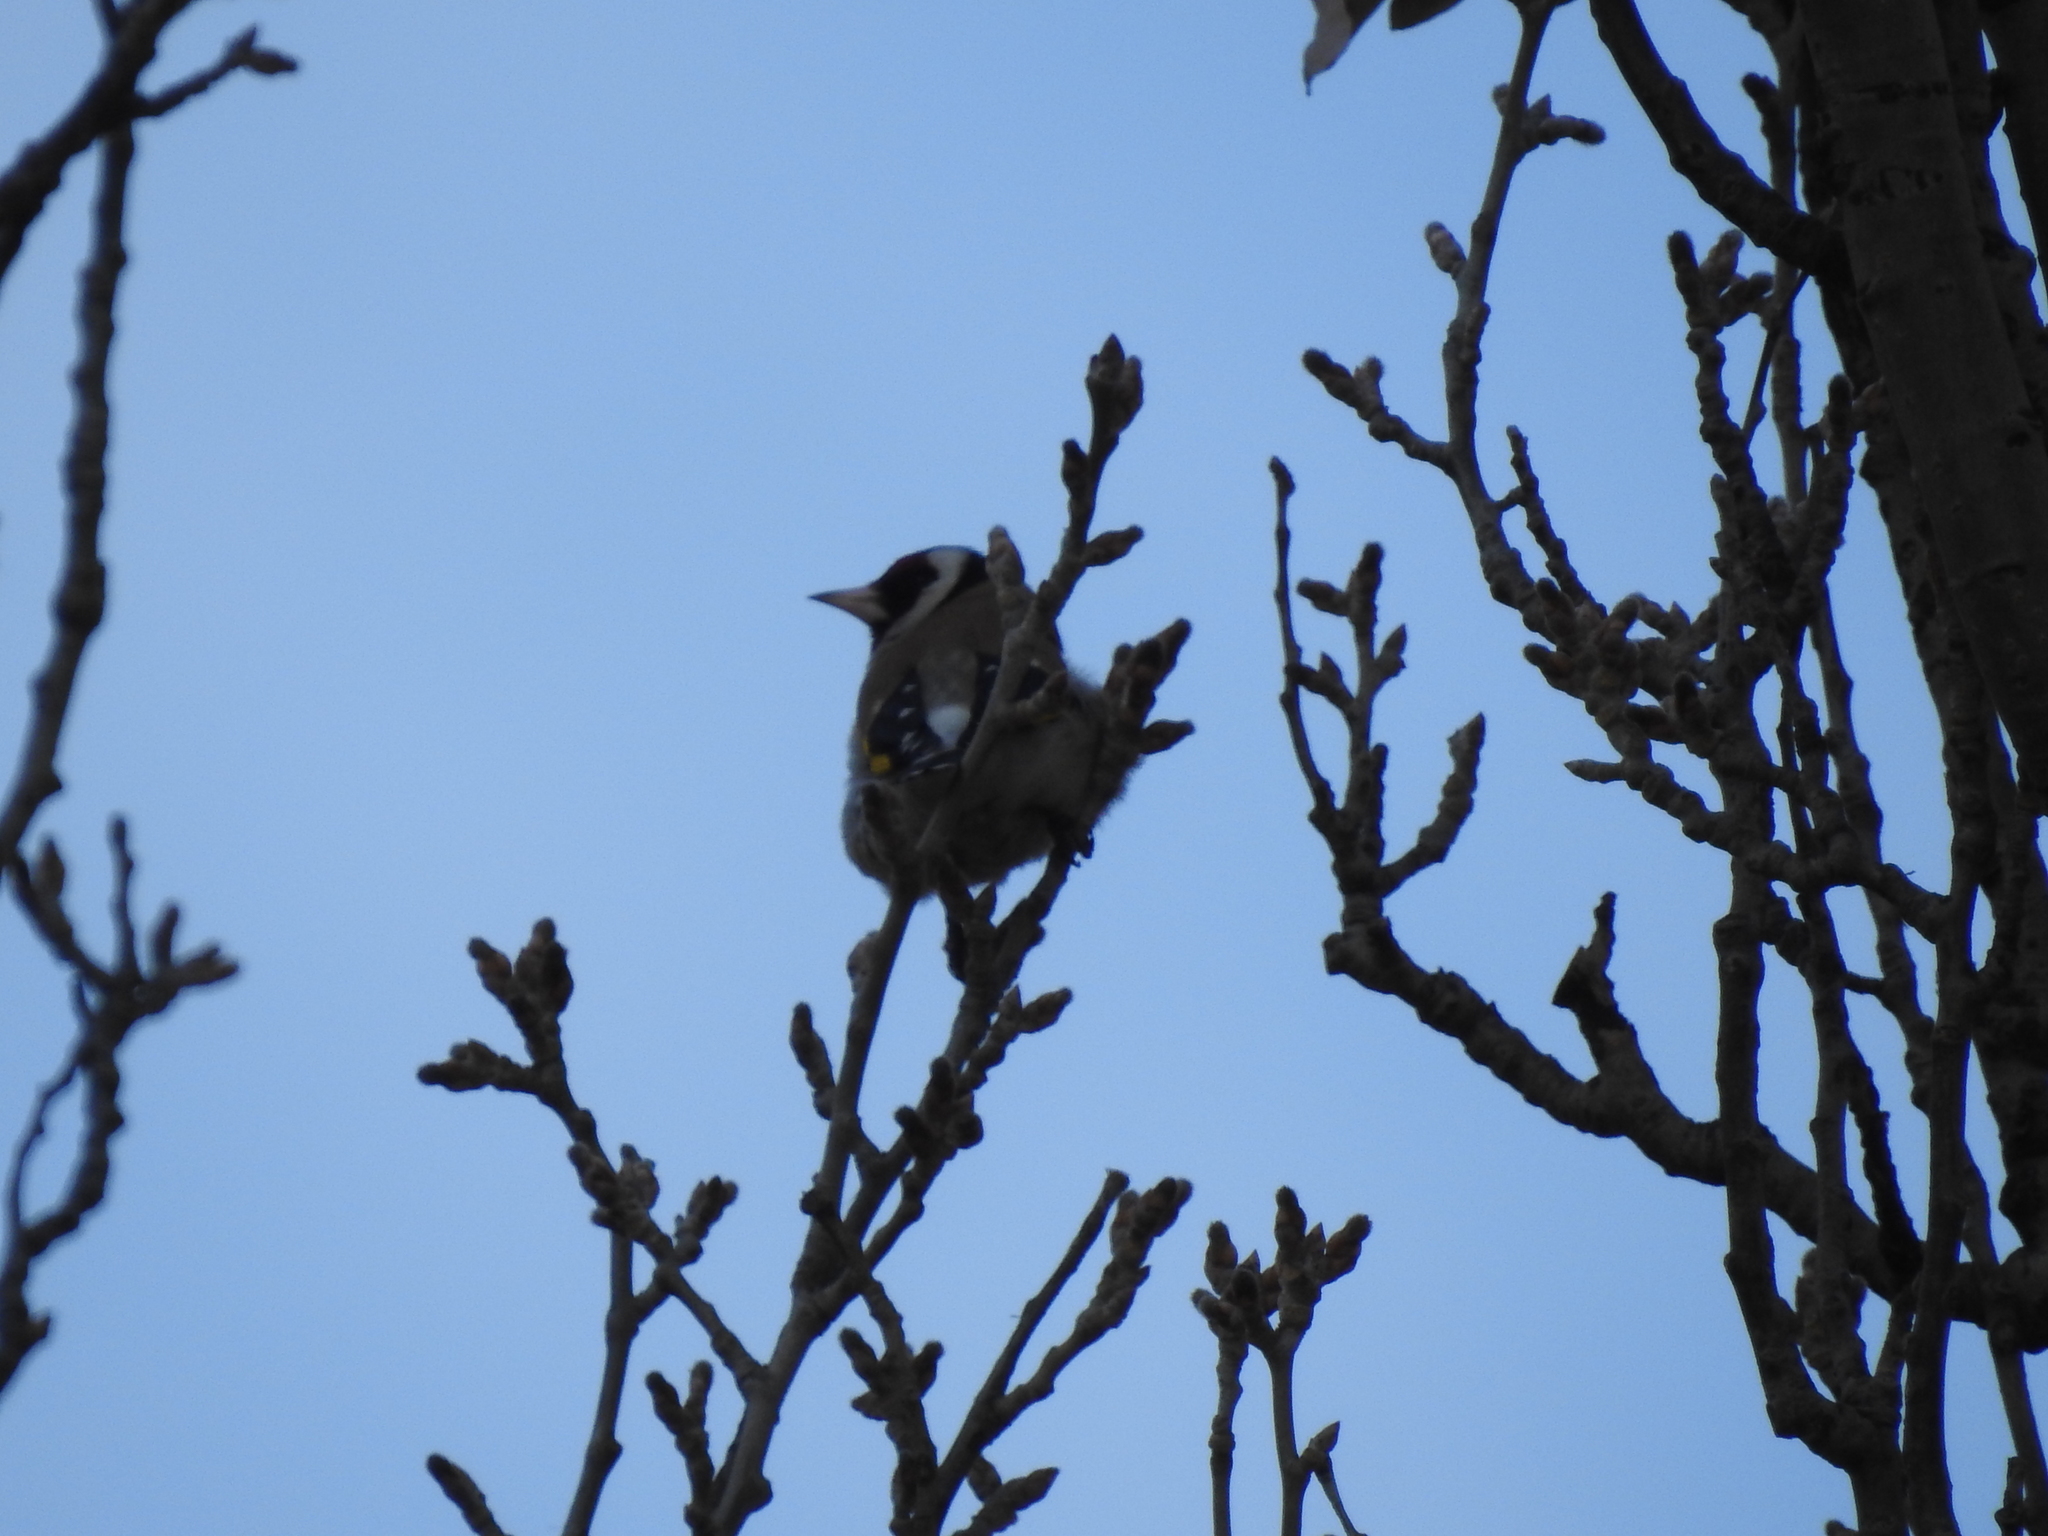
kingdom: Animalia
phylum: Chordata
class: Aves
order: Passeriformes
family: Fringillidae
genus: Carduelis
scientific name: Carduelis carduelis
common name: European goldfinch
